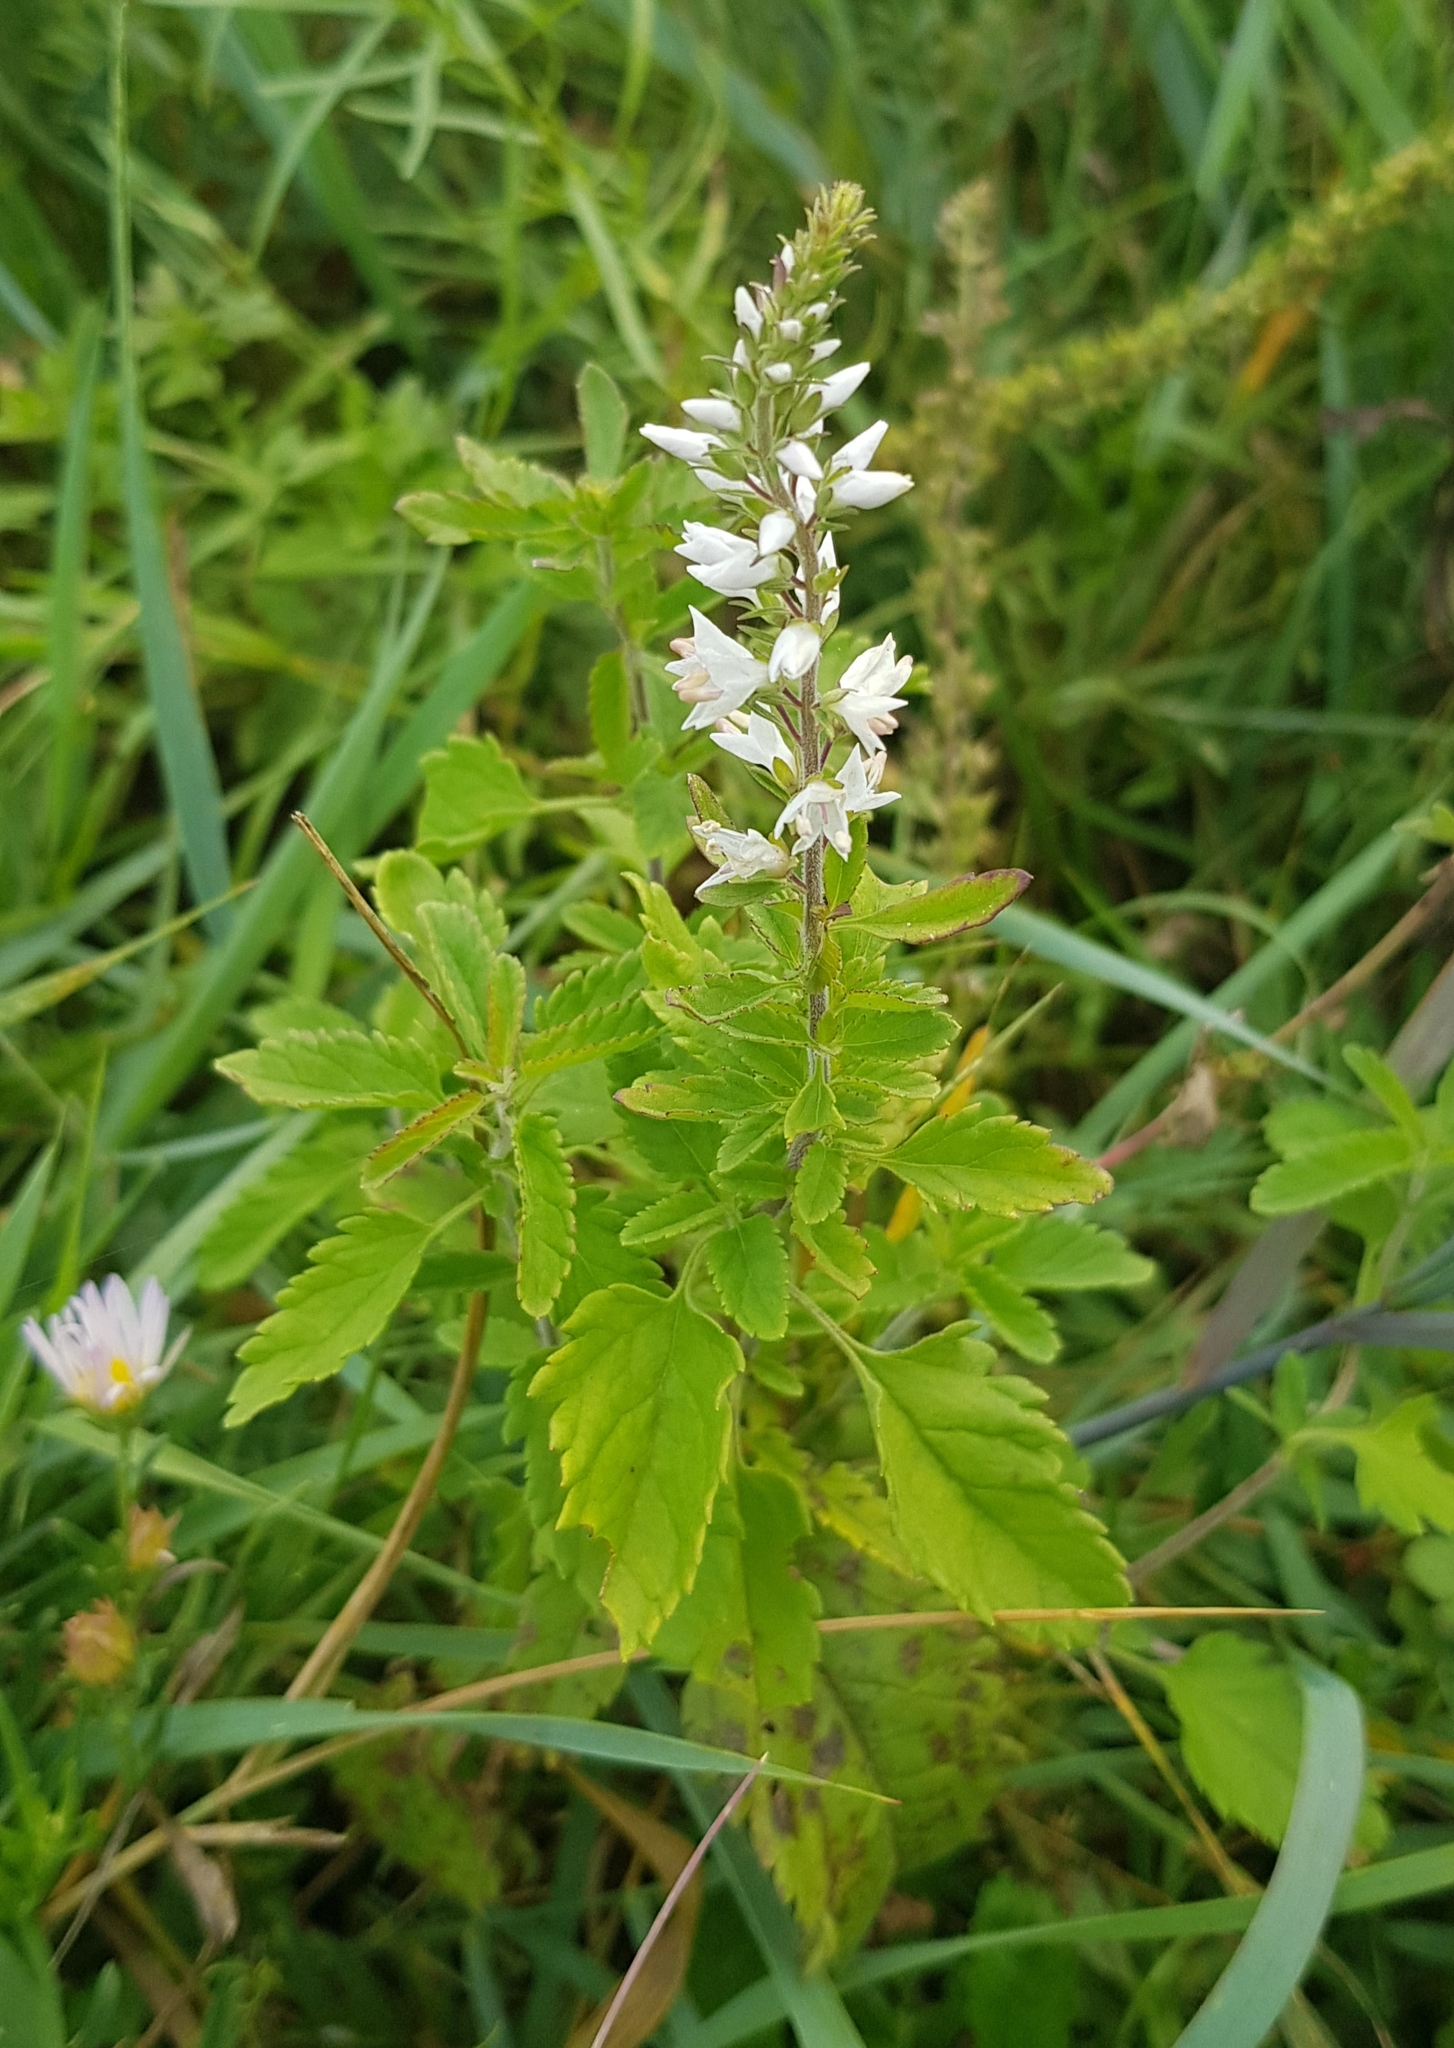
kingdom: Plantae
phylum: Tracheophyta
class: Magnoliopsida
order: Lamiales
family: Plantaginaceae
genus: Veronica
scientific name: Veronica daurica
